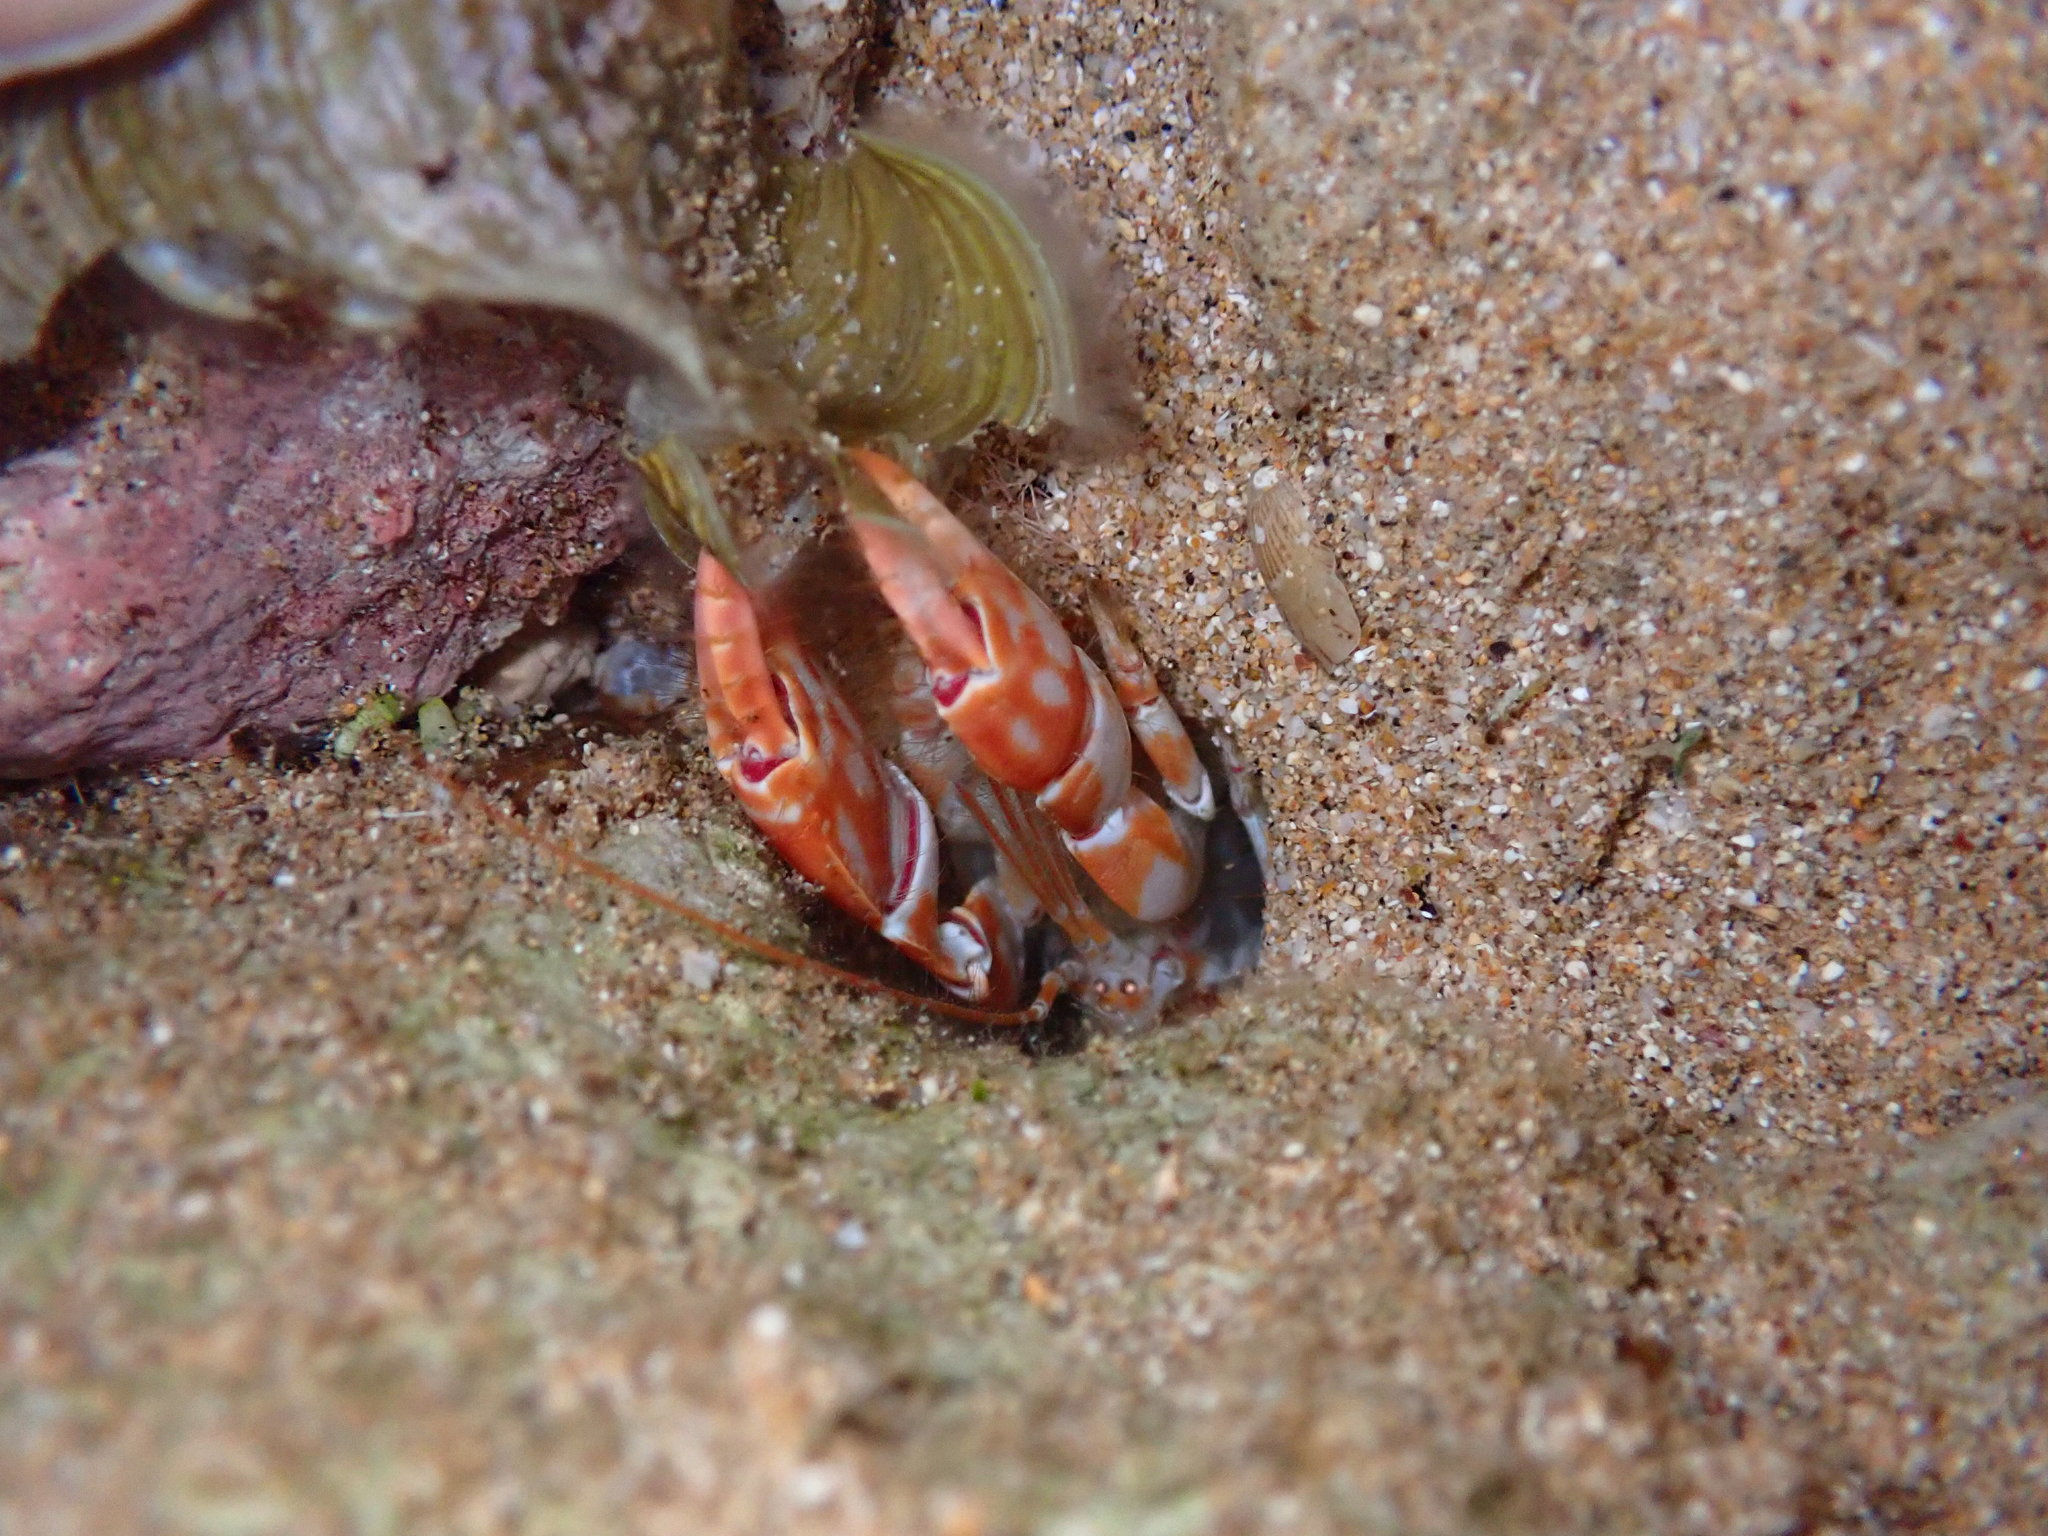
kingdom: Animalia
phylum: Arthropoda
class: Malacostraca
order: Decapoda
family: Callichiridae
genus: Corallianassa
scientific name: Corallianassa borradailei
